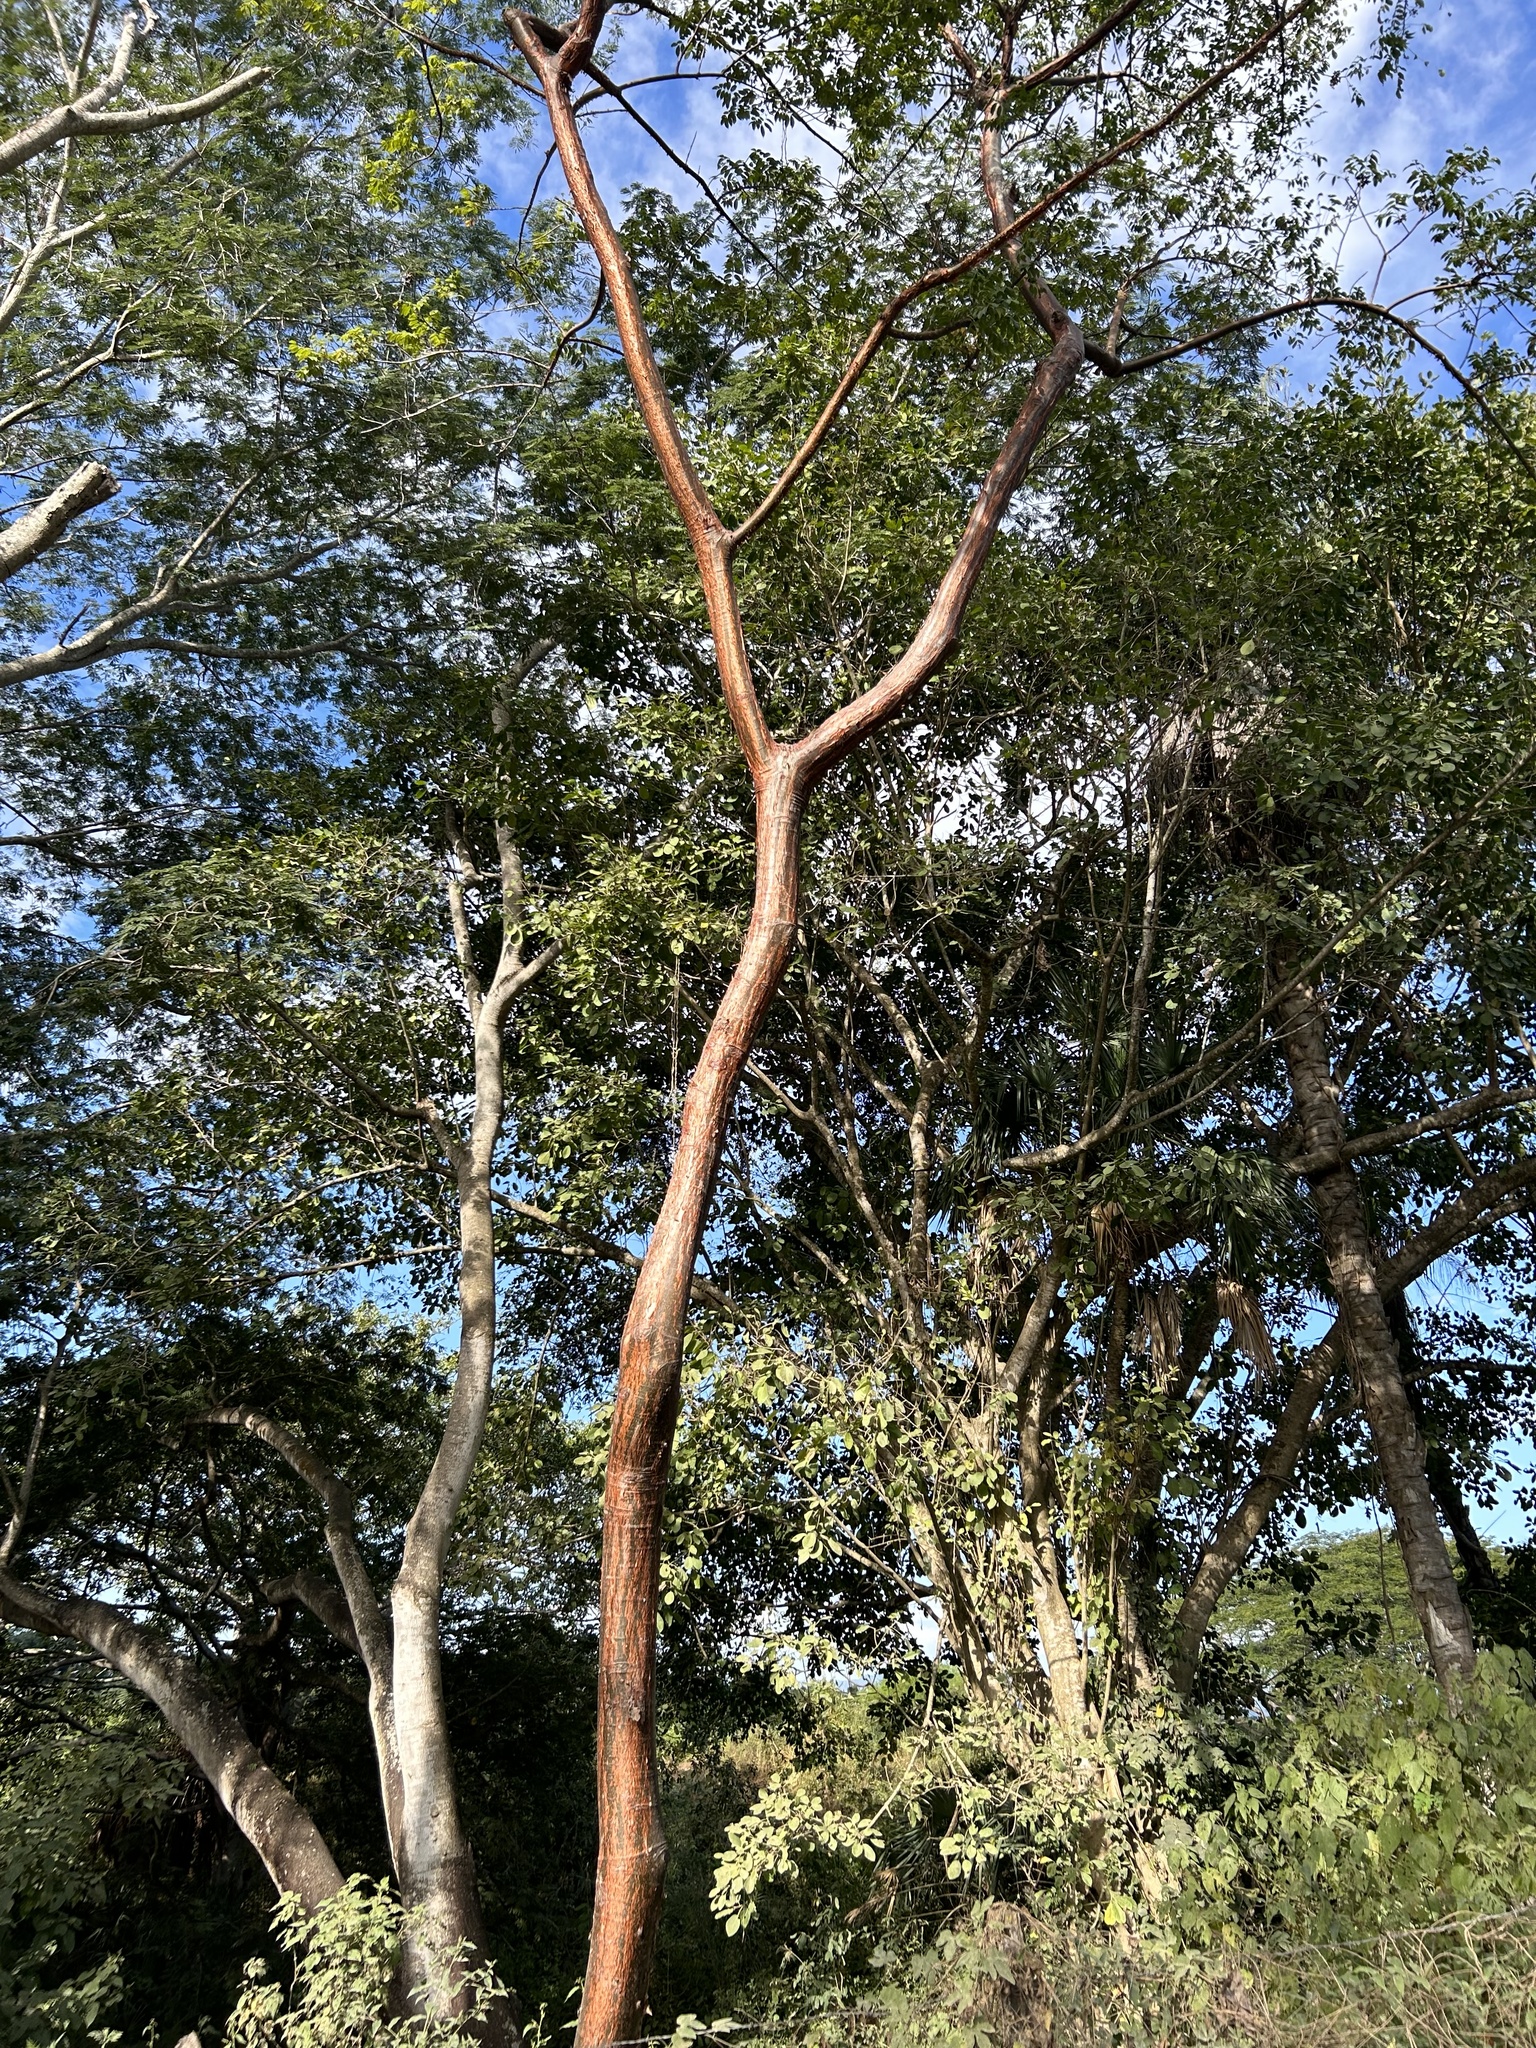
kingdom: Plantae
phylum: Tracheophyta
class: Magnoliopsida
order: Sapindales
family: Burseraceae
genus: Bursera
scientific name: Bursera simaruba
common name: Turpentine tree
